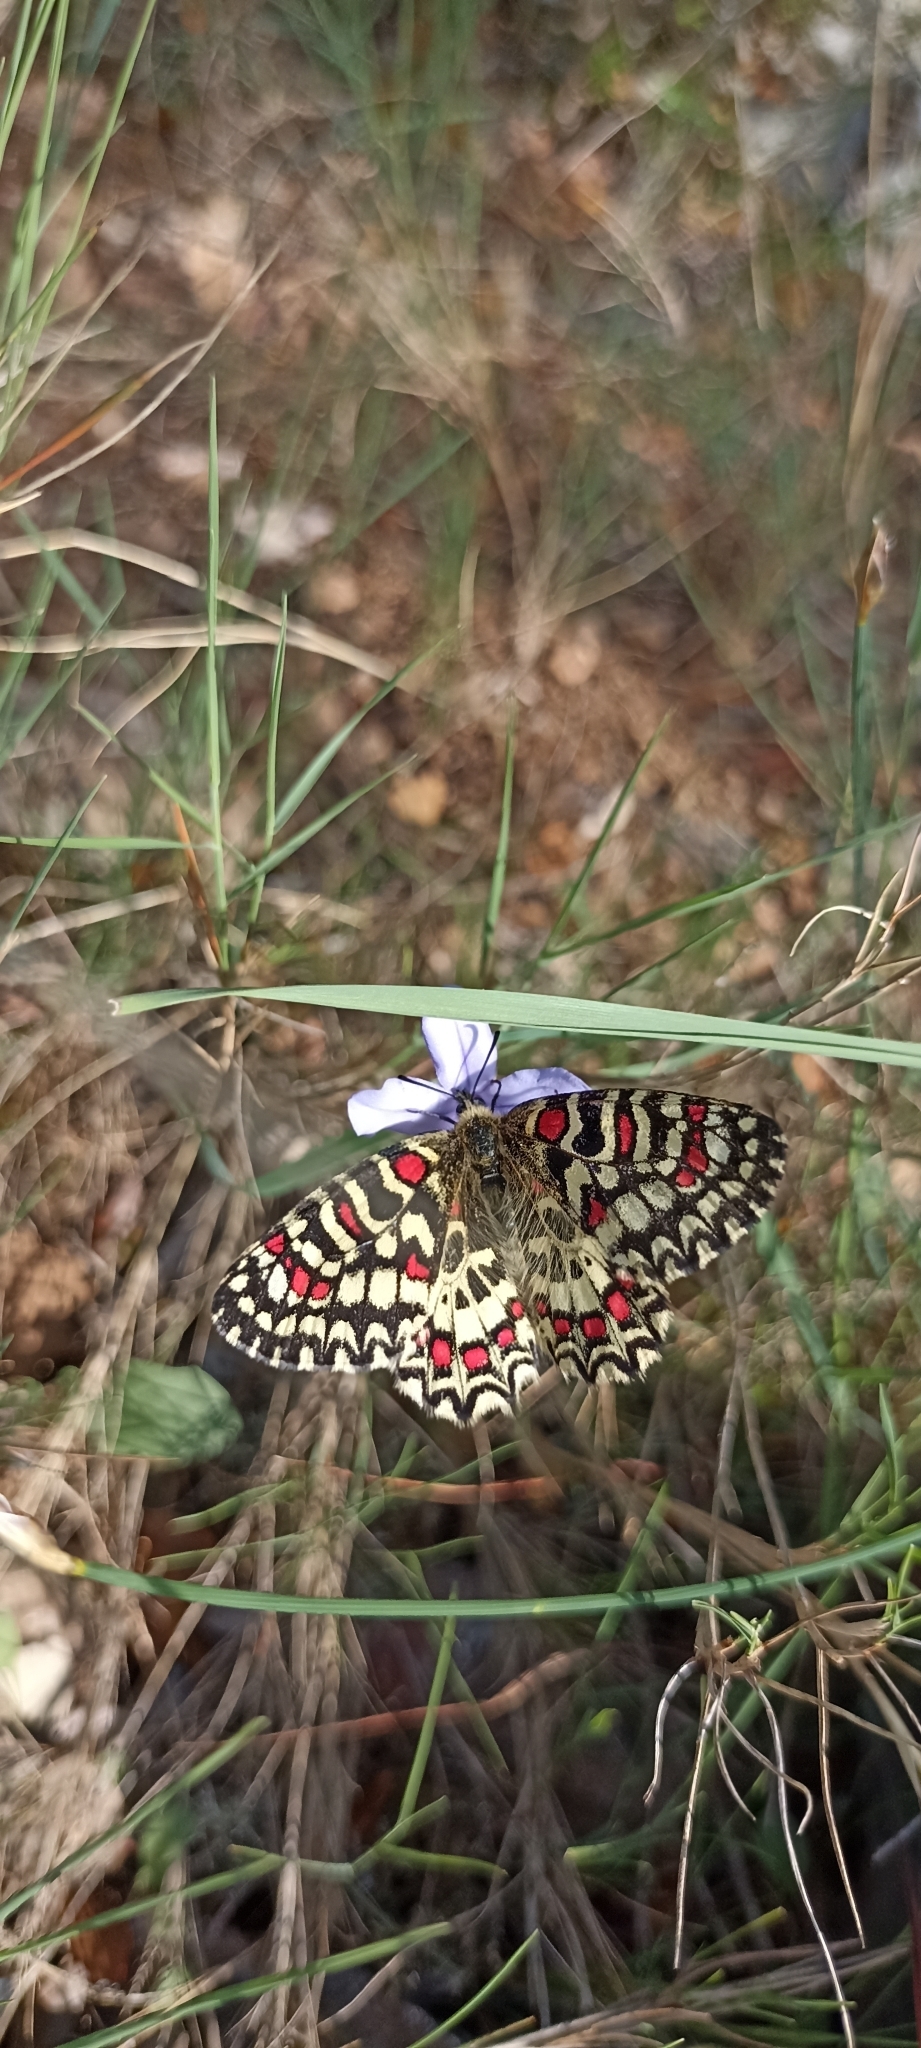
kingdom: Animalia
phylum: Arthropoda
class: Insecta
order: Lepidoptera
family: Papilionidae
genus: Zerynthia
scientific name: Zerynthia rumina
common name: Spanish festoon
